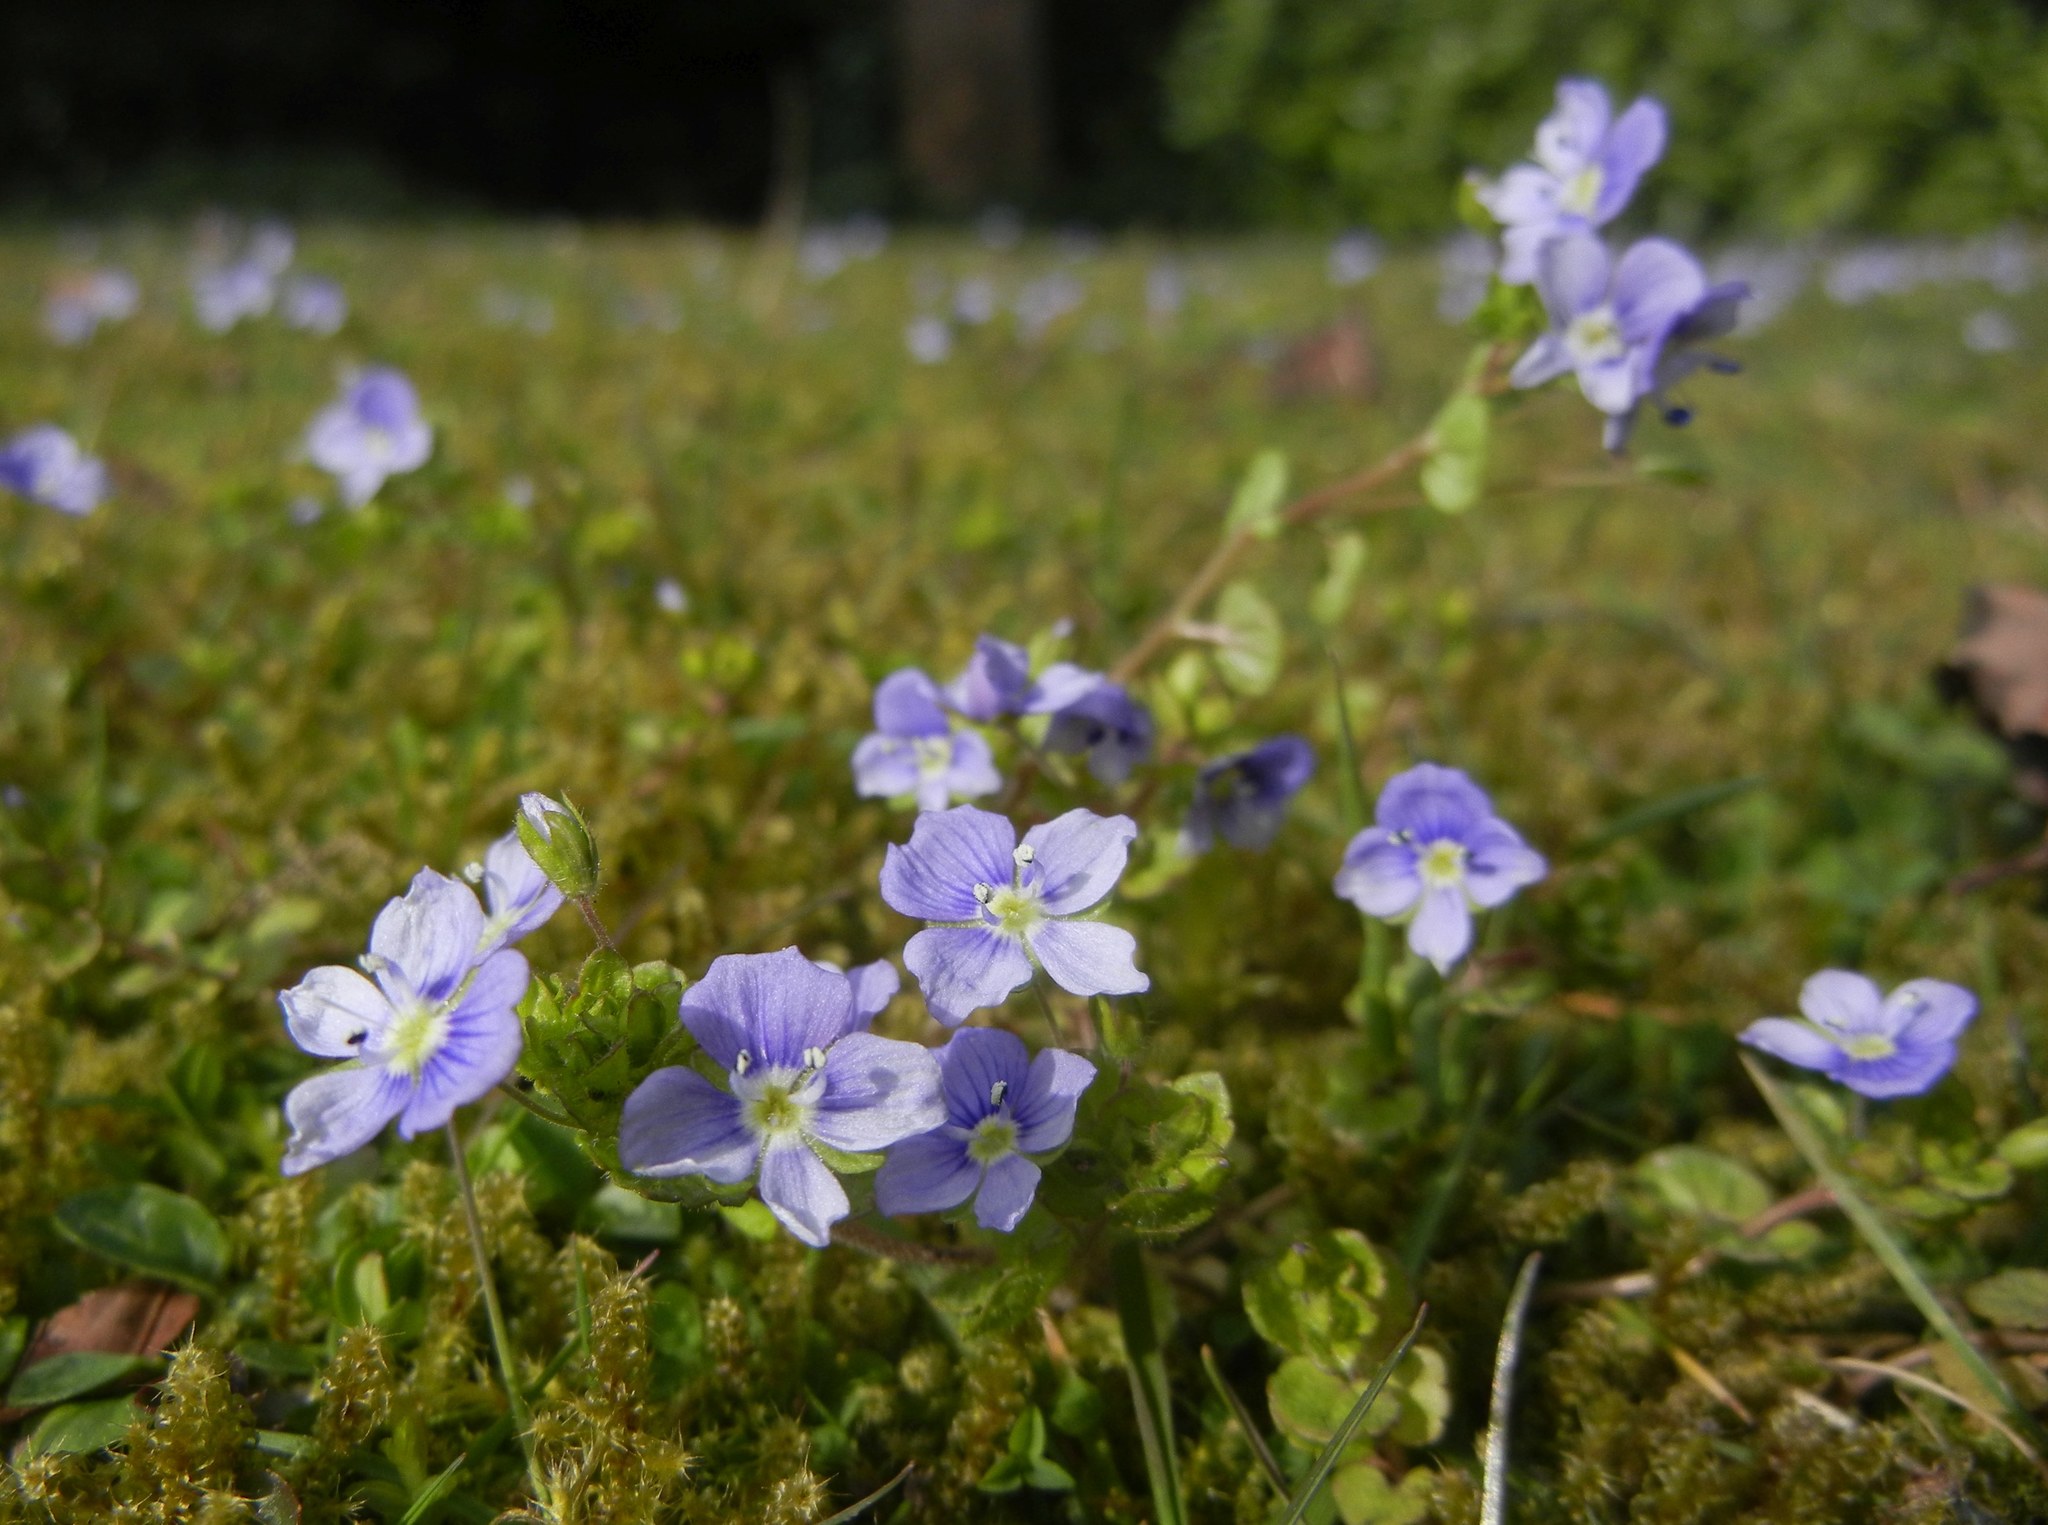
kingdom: Plantae
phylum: Tracheophyta
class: Magnoliopsida
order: Lamiales
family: Plantaginaceae
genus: Veronica
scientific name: Veronica filiformis
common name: Slender speedwell
